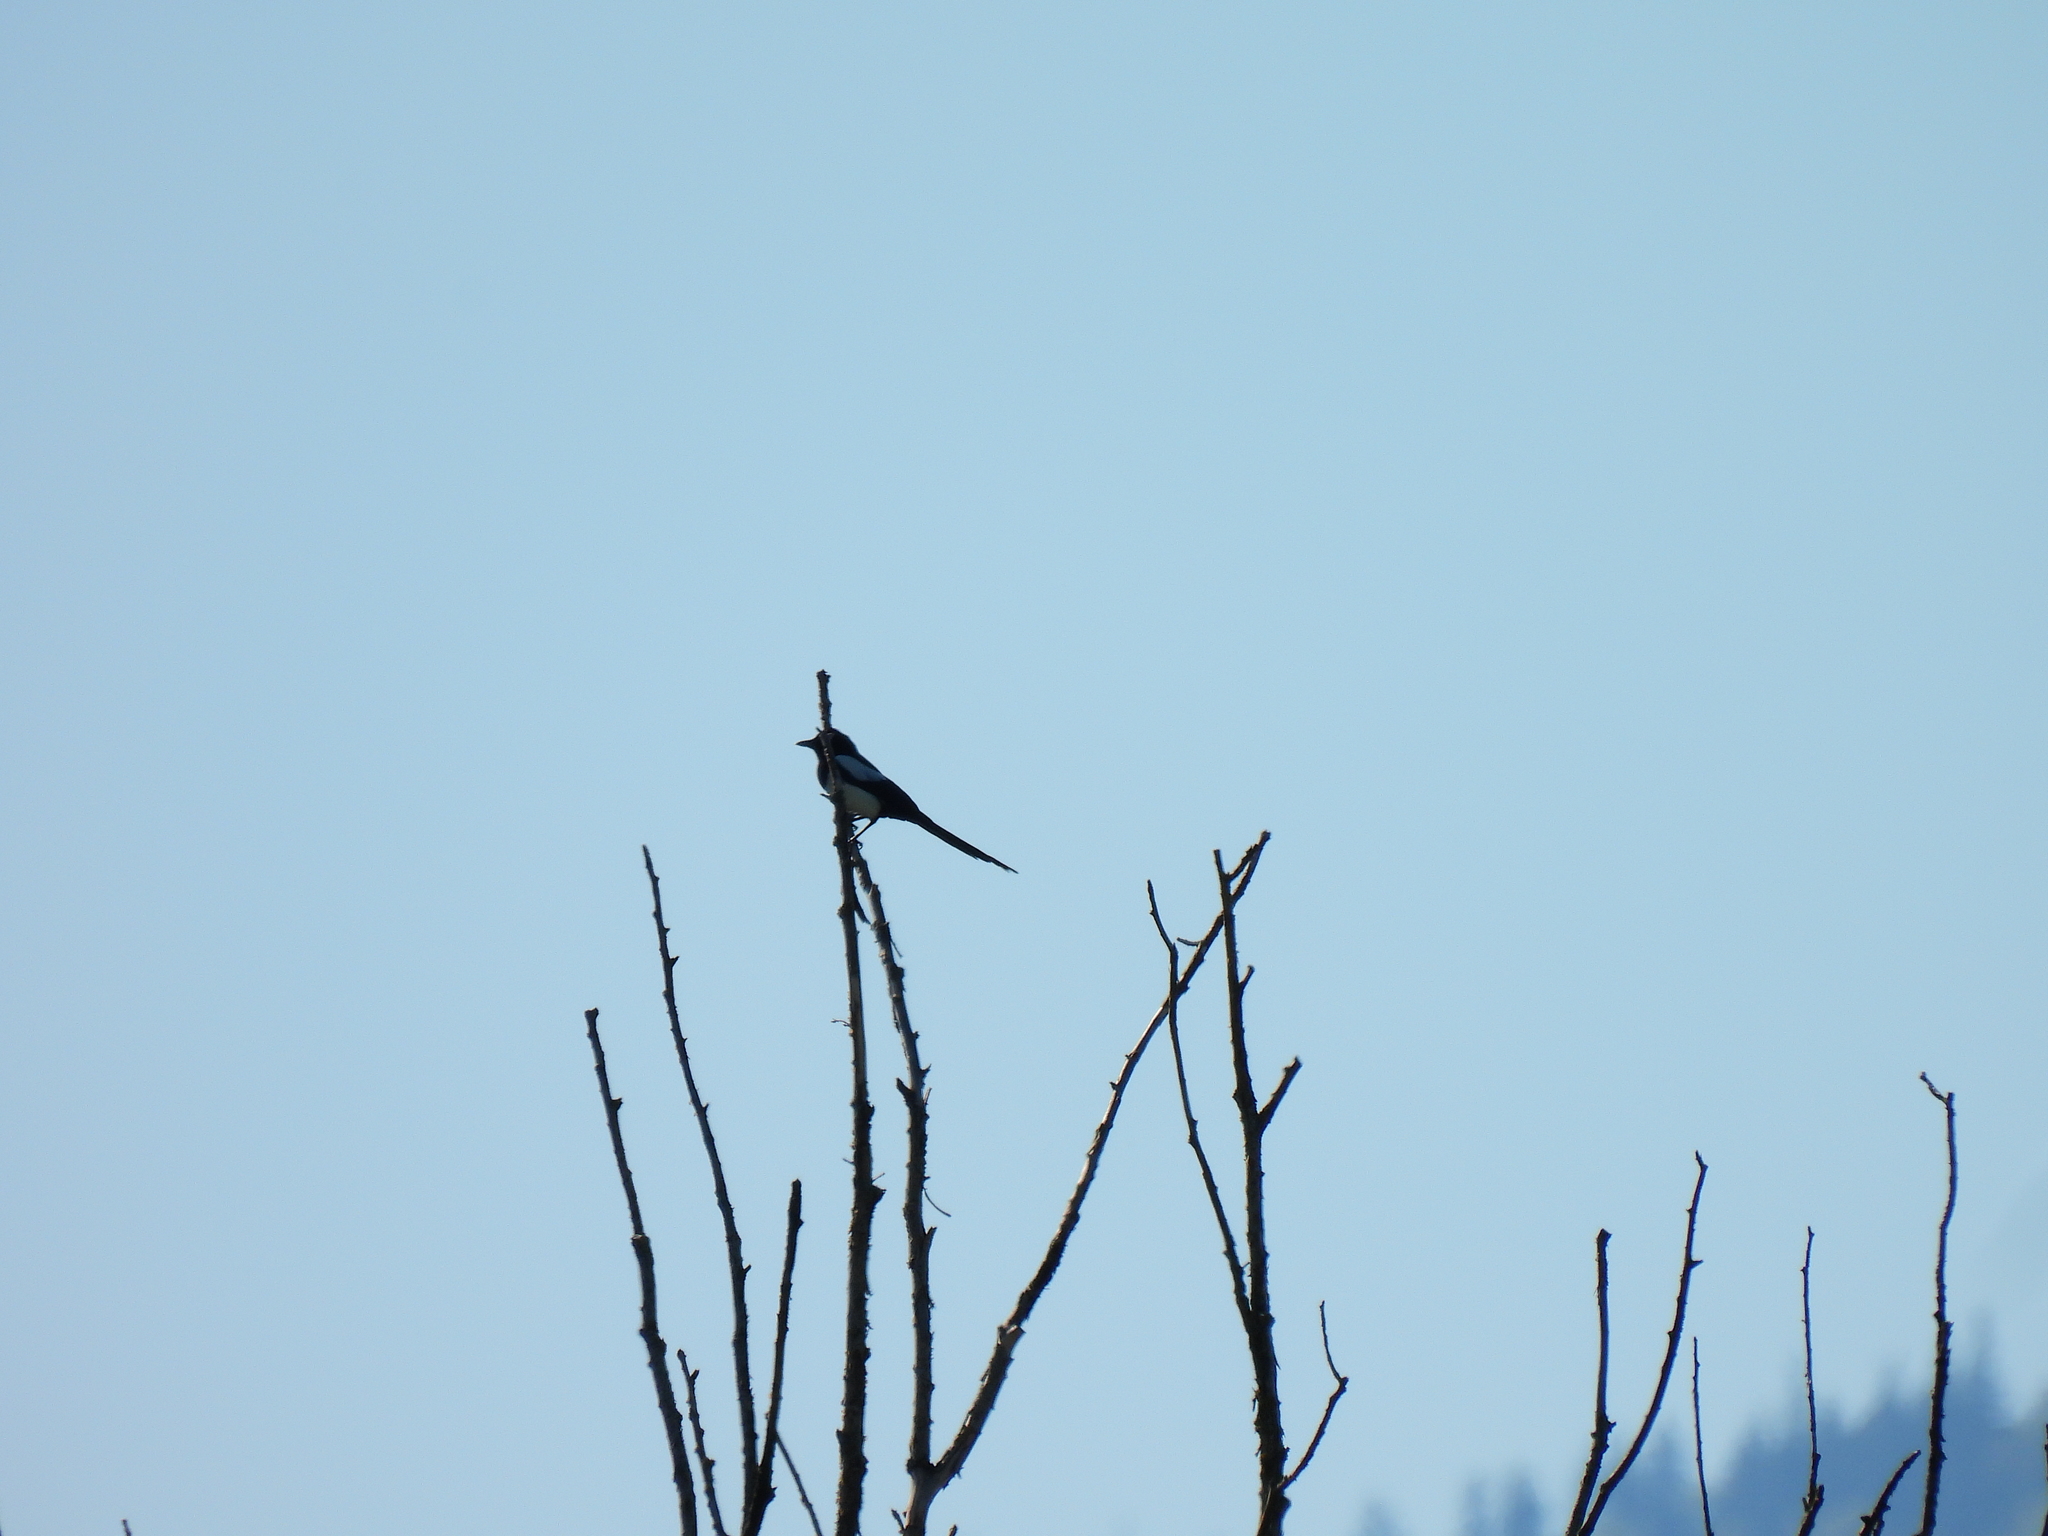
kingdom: Animalia
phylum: Chordata
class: Aves
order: Passeriformes
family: Corvidae
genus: Pica
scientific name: Pica pica
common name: Eurasian magpie
